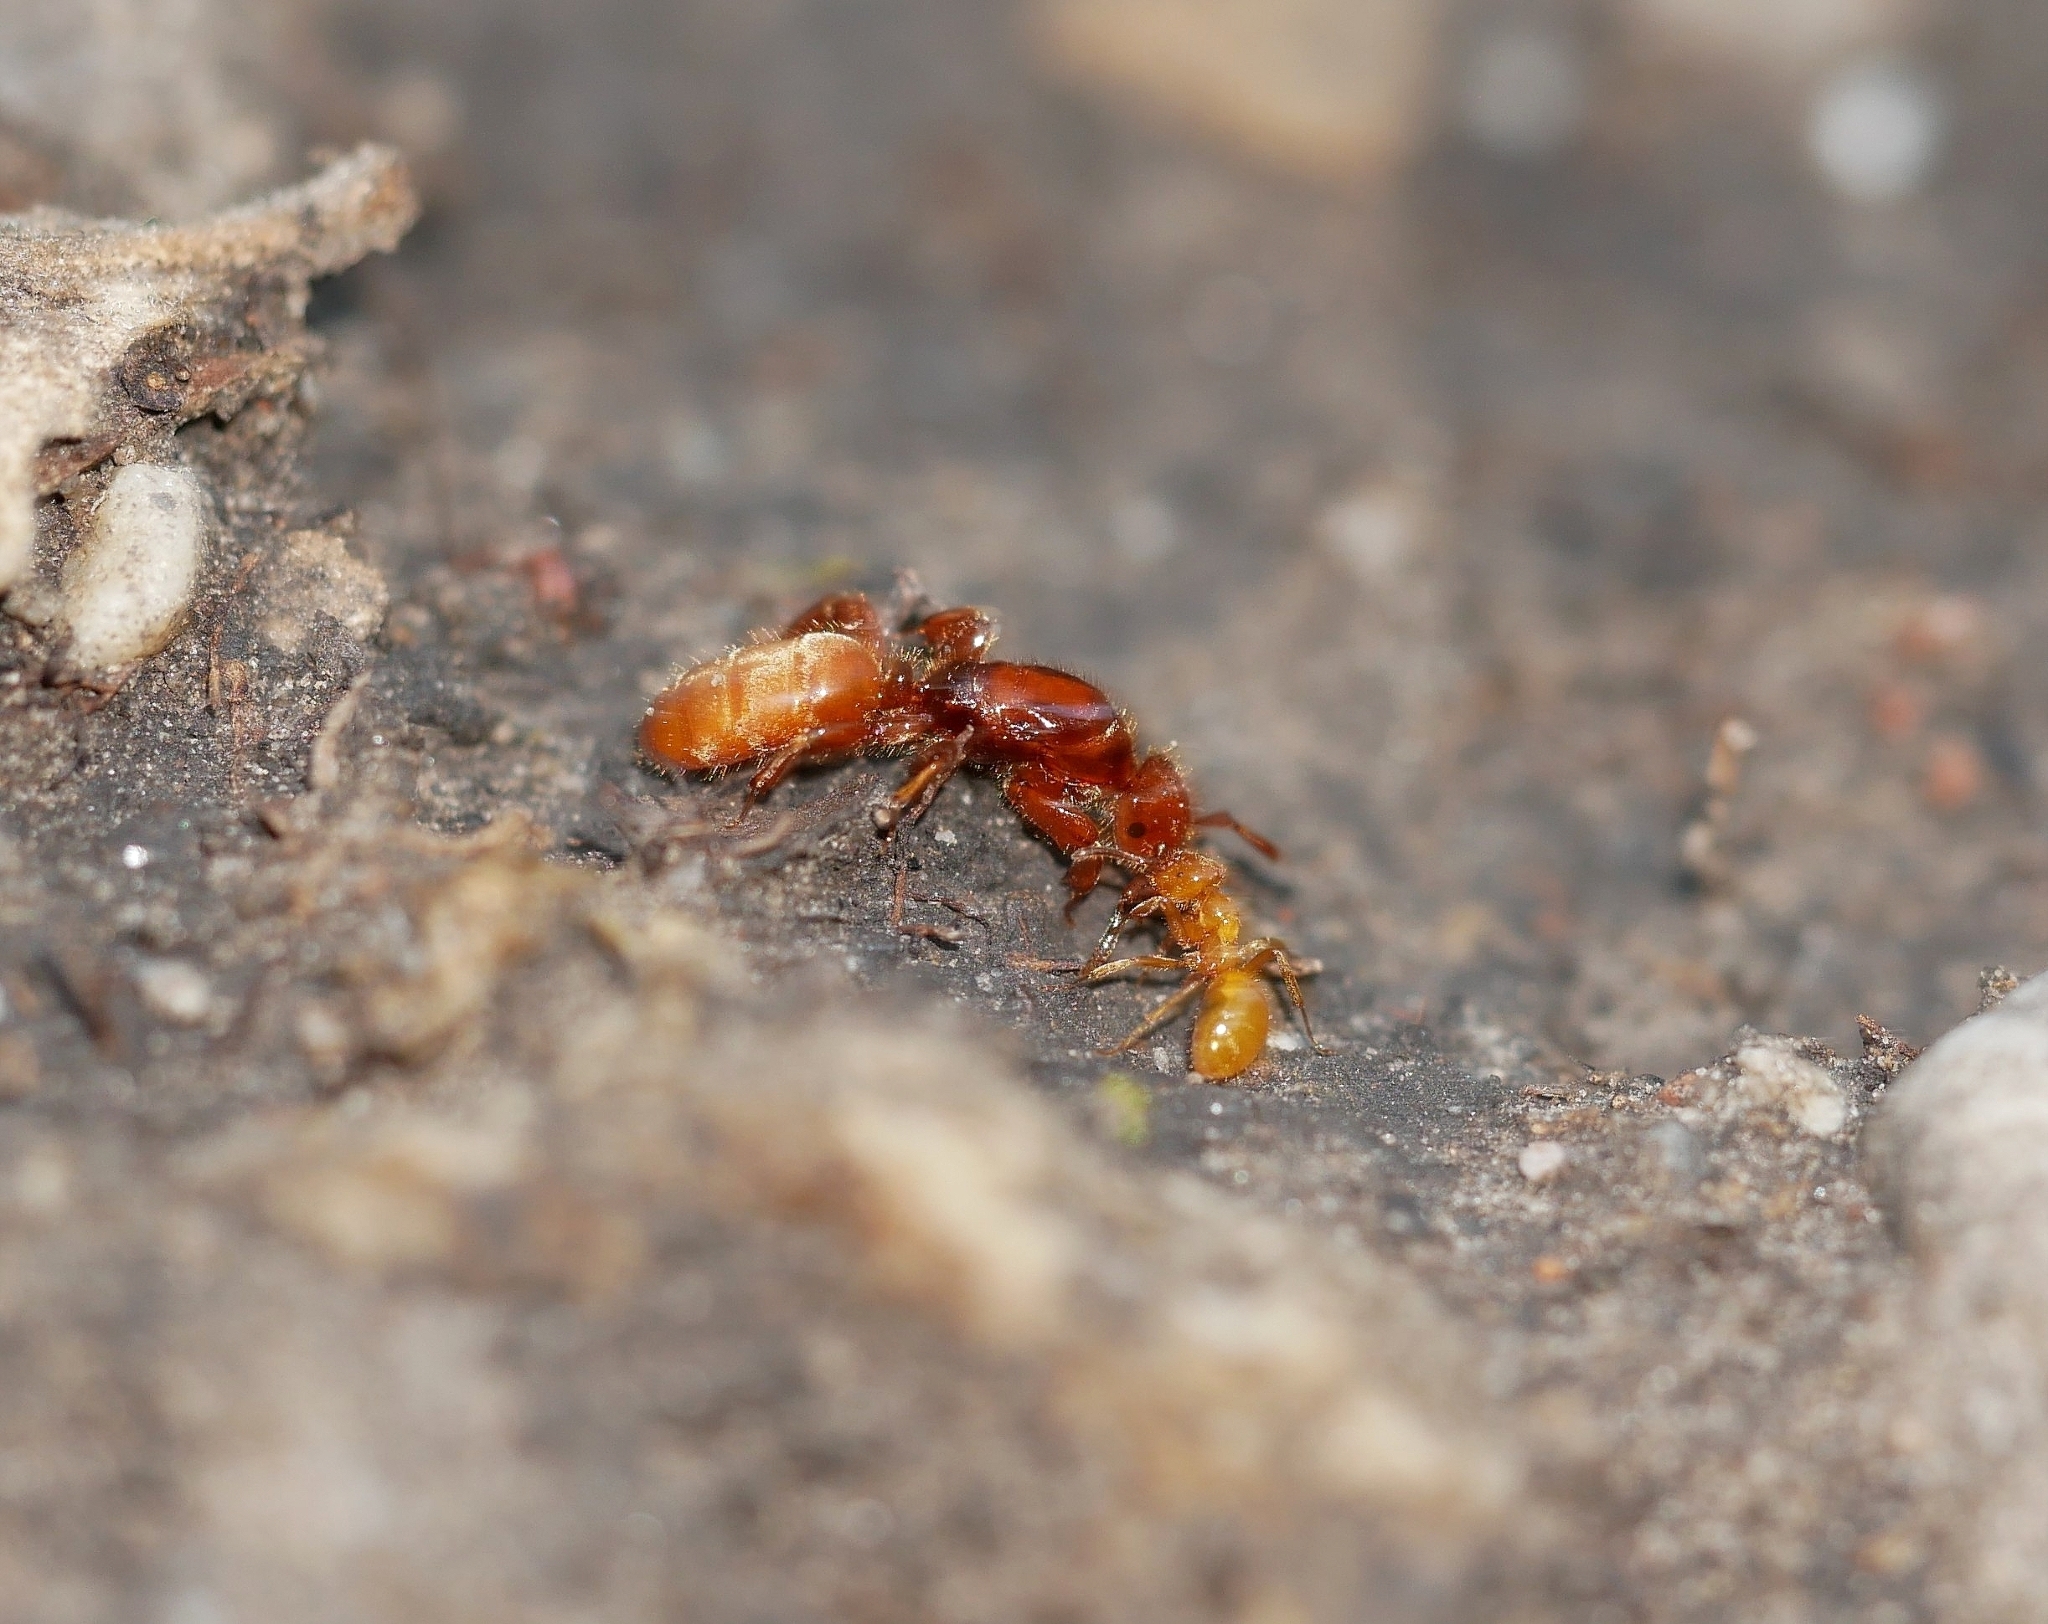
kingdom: Animalia
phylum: Arthropoda
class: Insecta
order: Hymenoptera
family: Formicidae
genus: Acanthomyops
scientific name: Acanthomyops latipes
